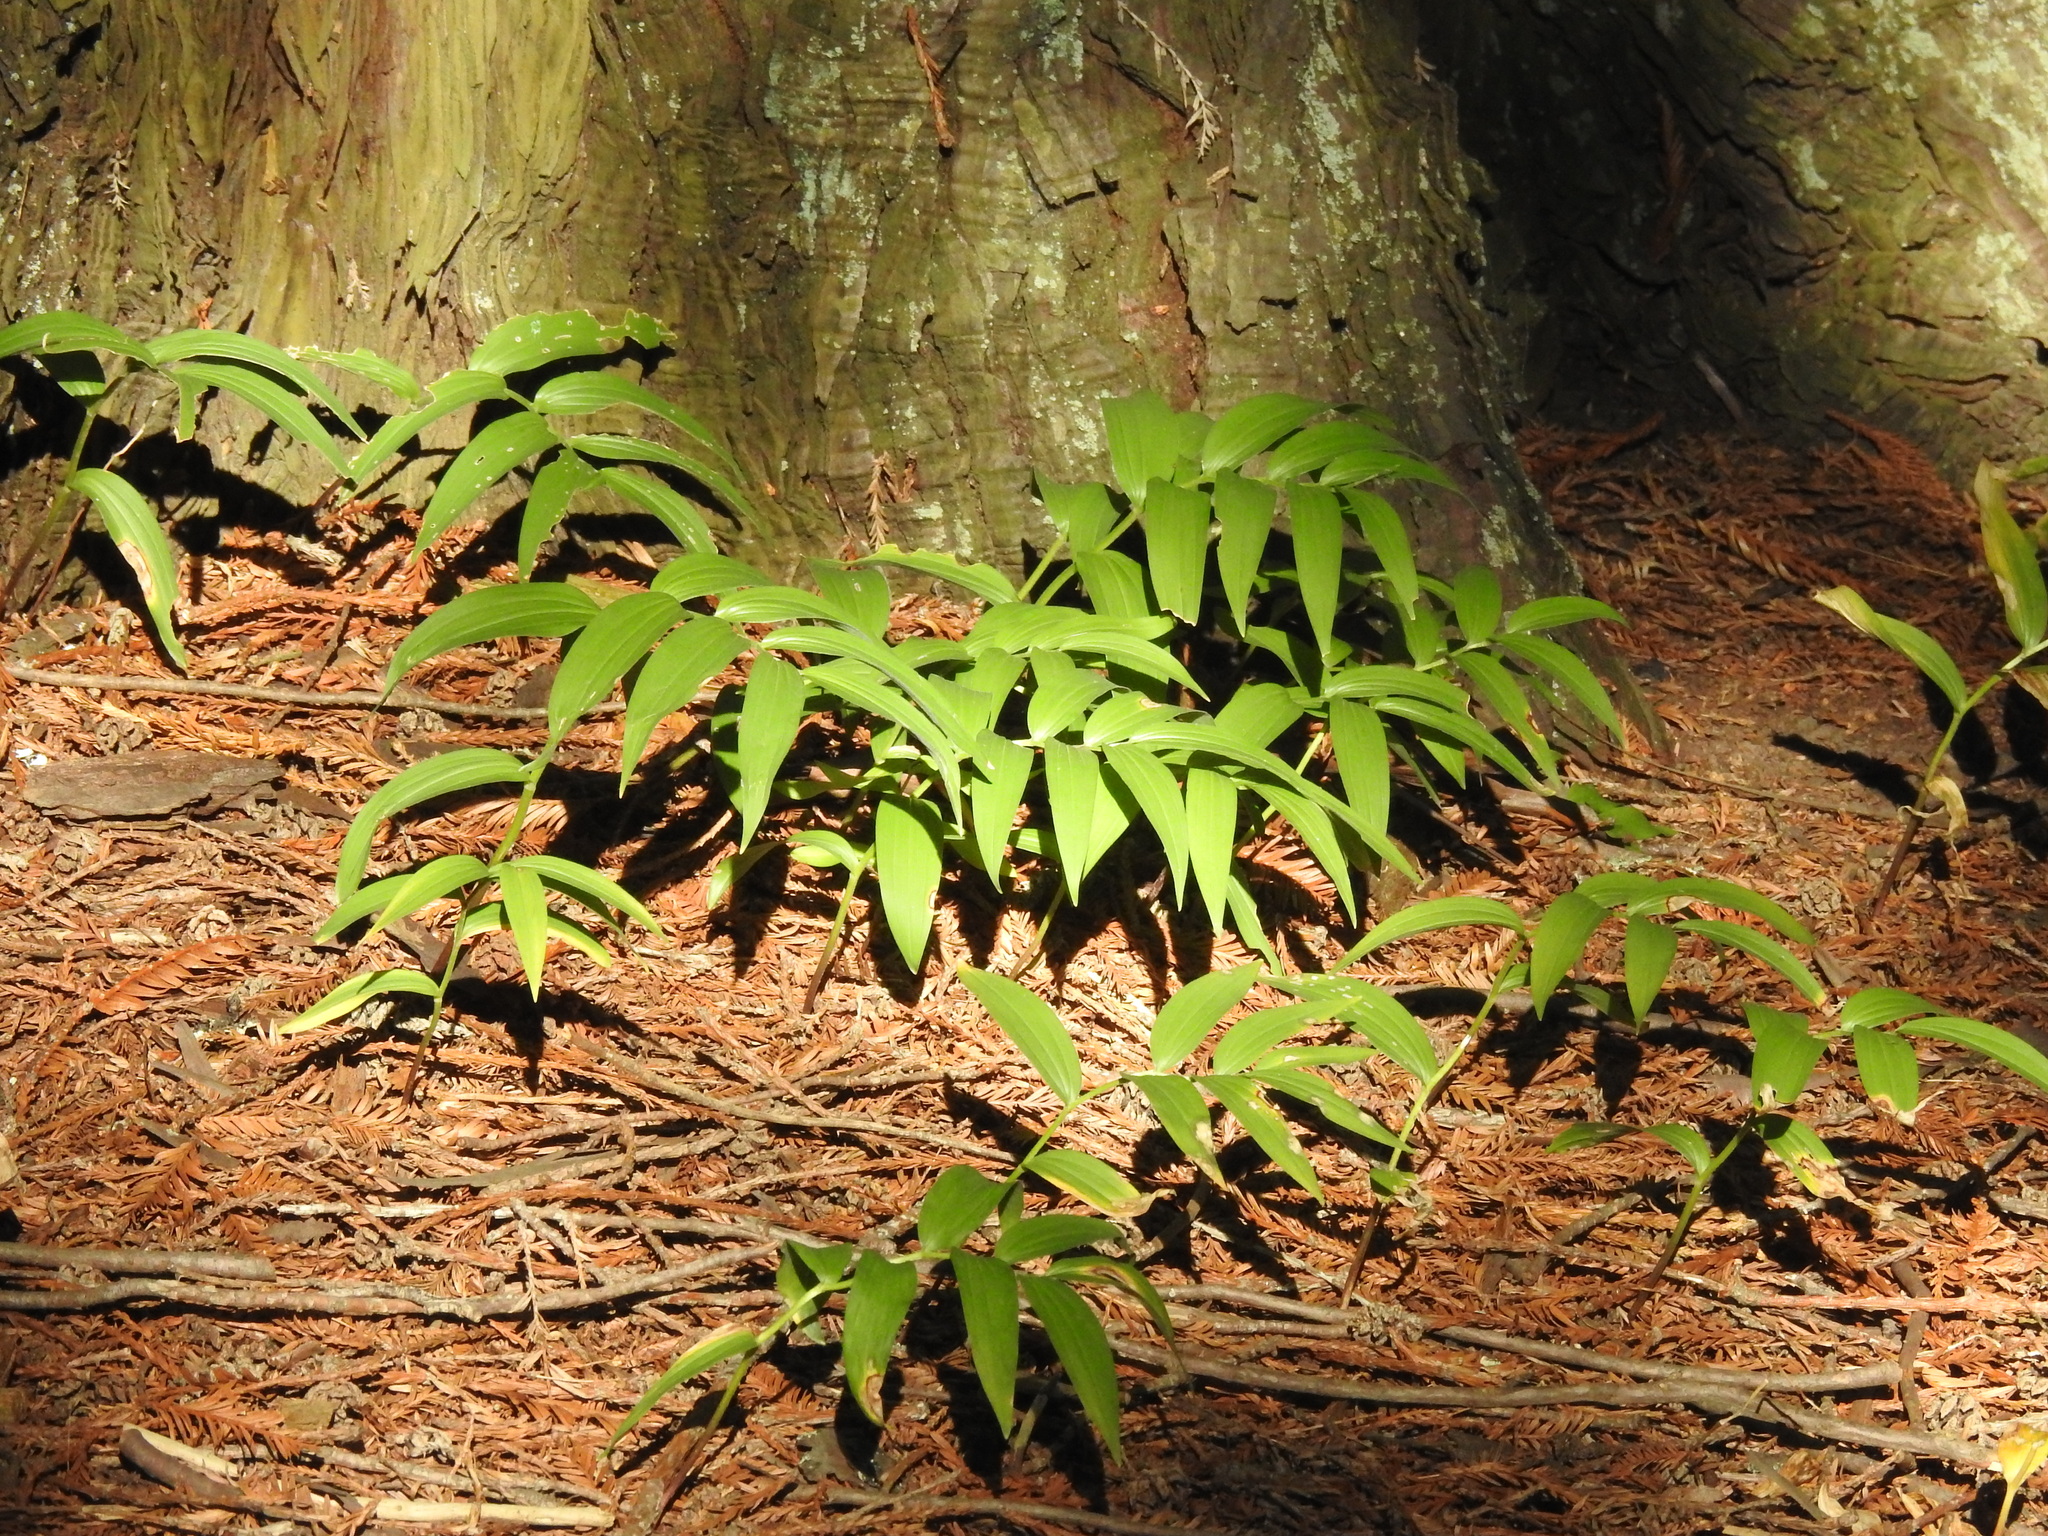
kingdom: Plantae
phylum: Tracheophyta
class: Liliopsida
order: Asparagales
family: Asparagaceae
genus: Maianthemum
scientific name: Maianthemum stellatum
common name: Little false solomon's seal
